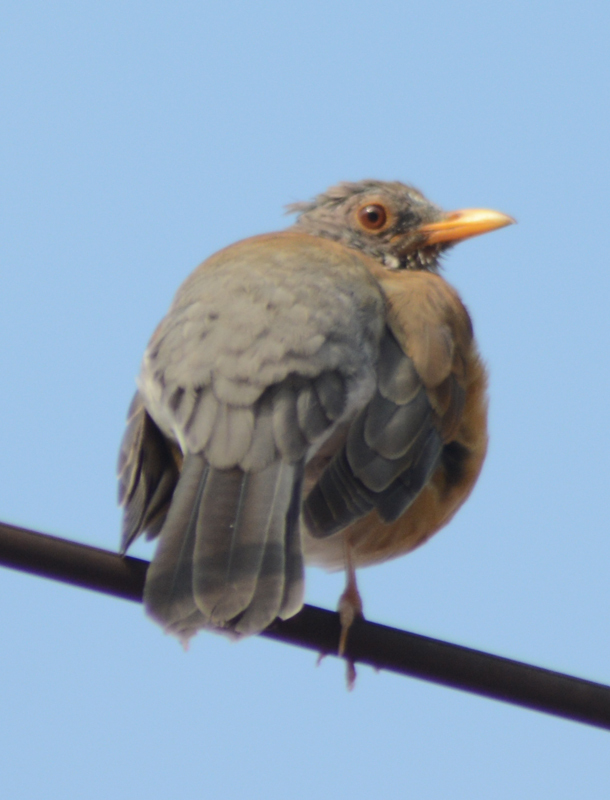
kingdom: Animalia
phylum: Chordata
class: Aves
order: Passeriformes
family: Turdidae
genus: Turdus
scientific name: Turdus rufopalliatus
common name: Rufous-backed robin
